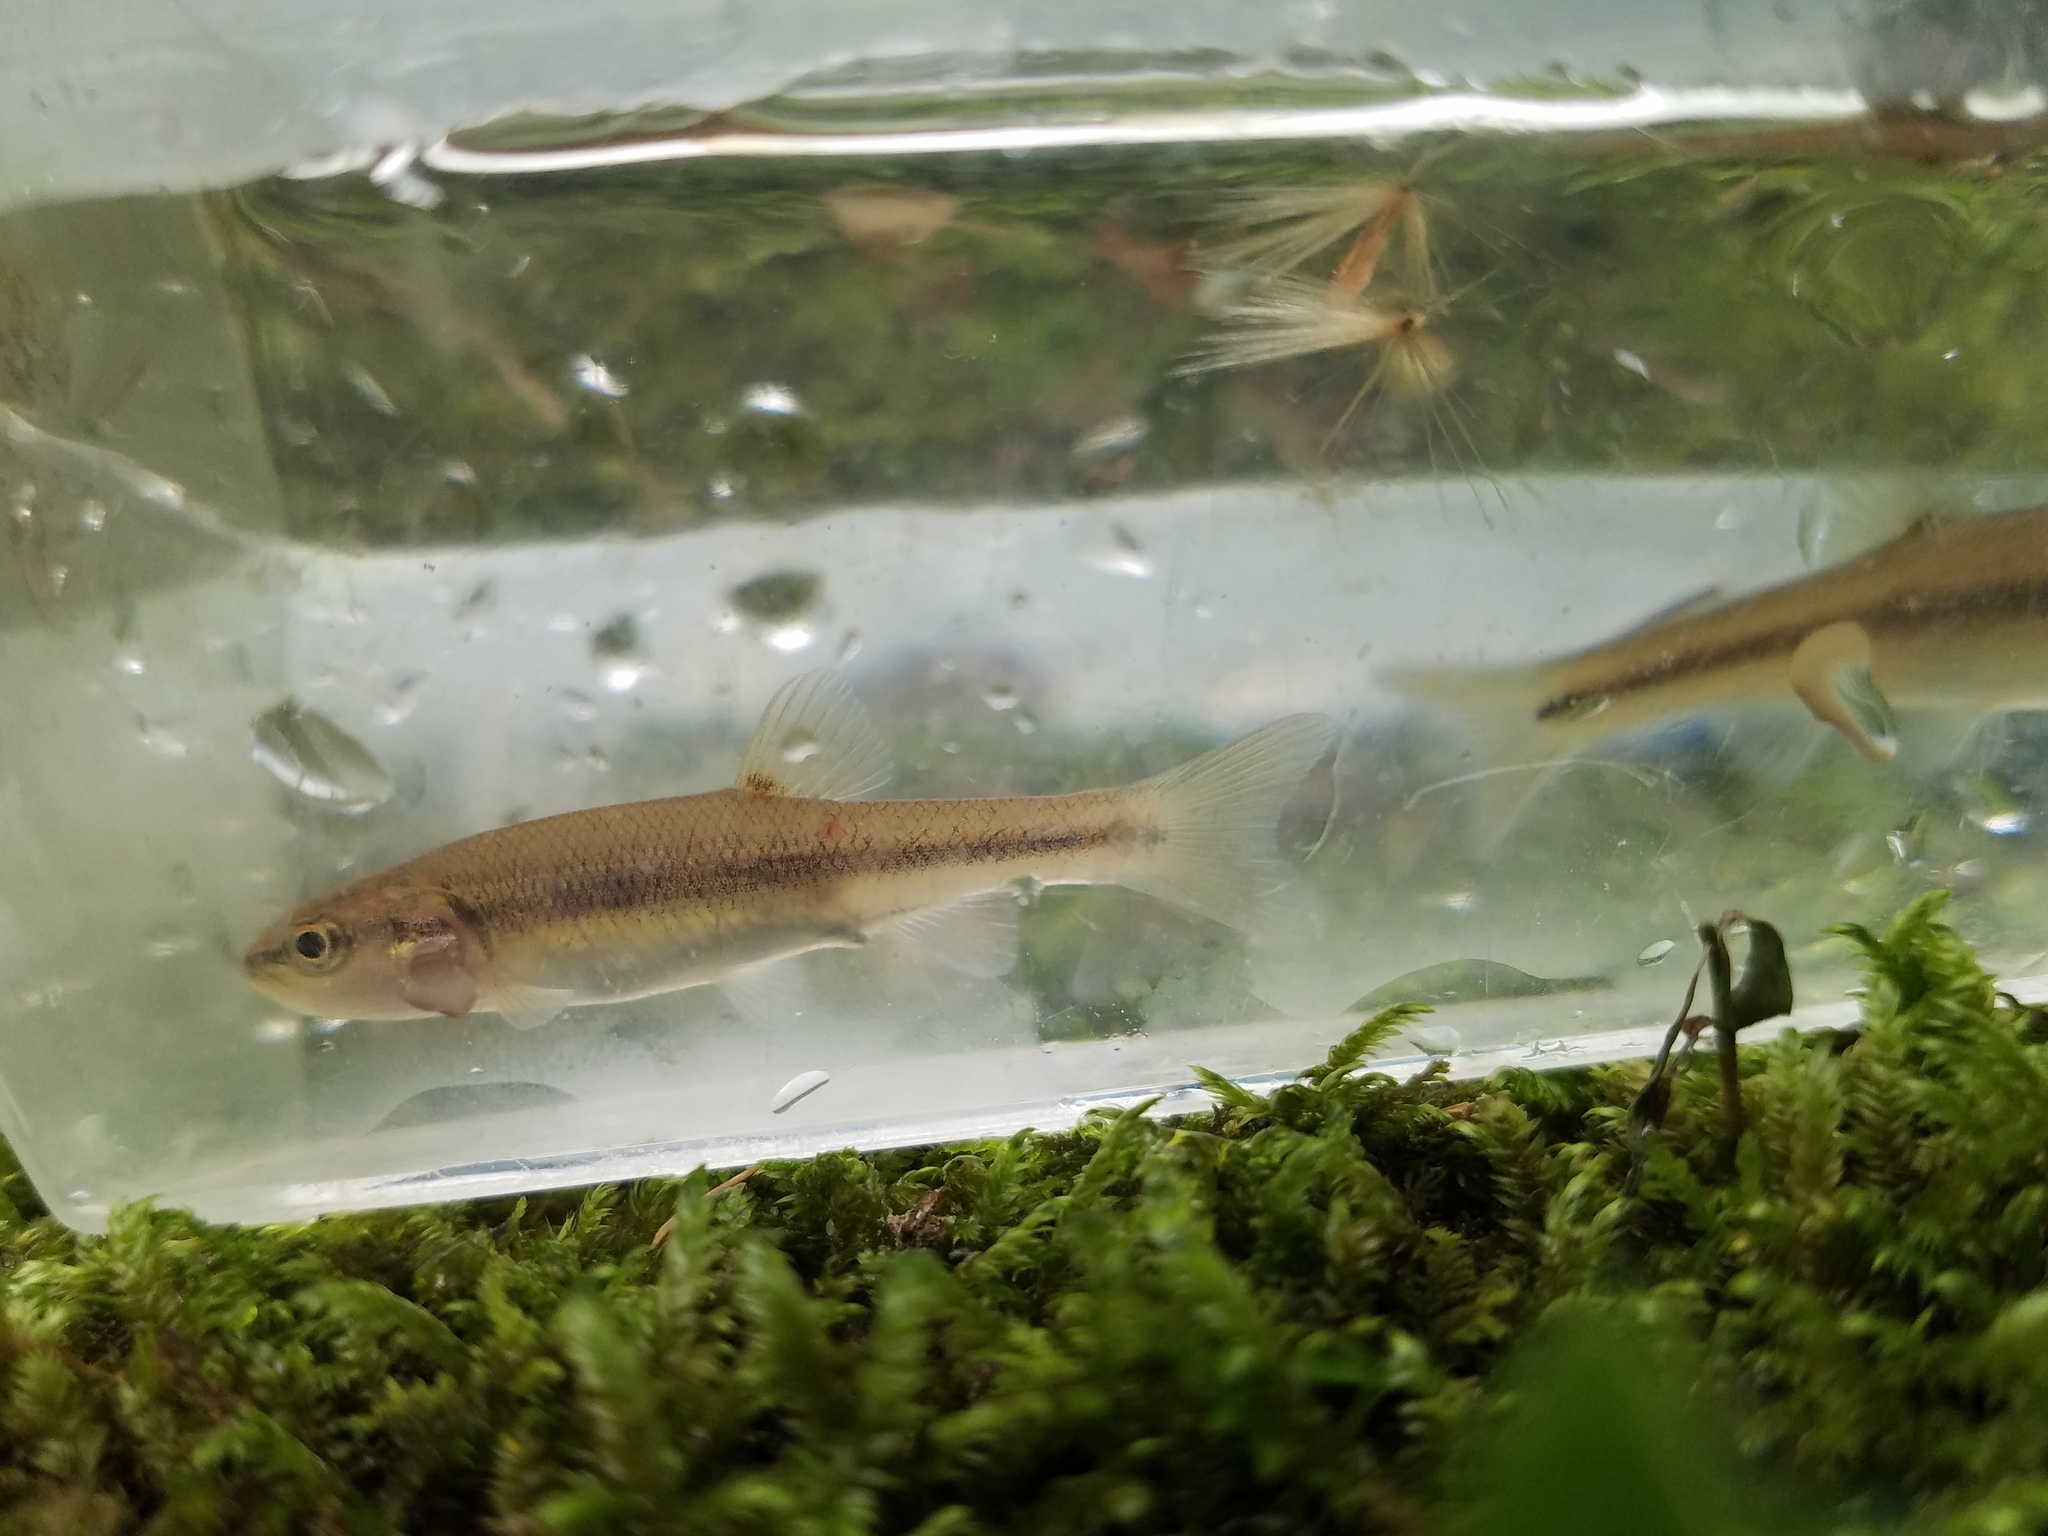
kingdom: Animalia
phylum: Chordata
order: Cypriniformes
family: Cyprinidae
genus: Semotilus
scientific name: Semotilus atromaculatus
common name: Creek chub
